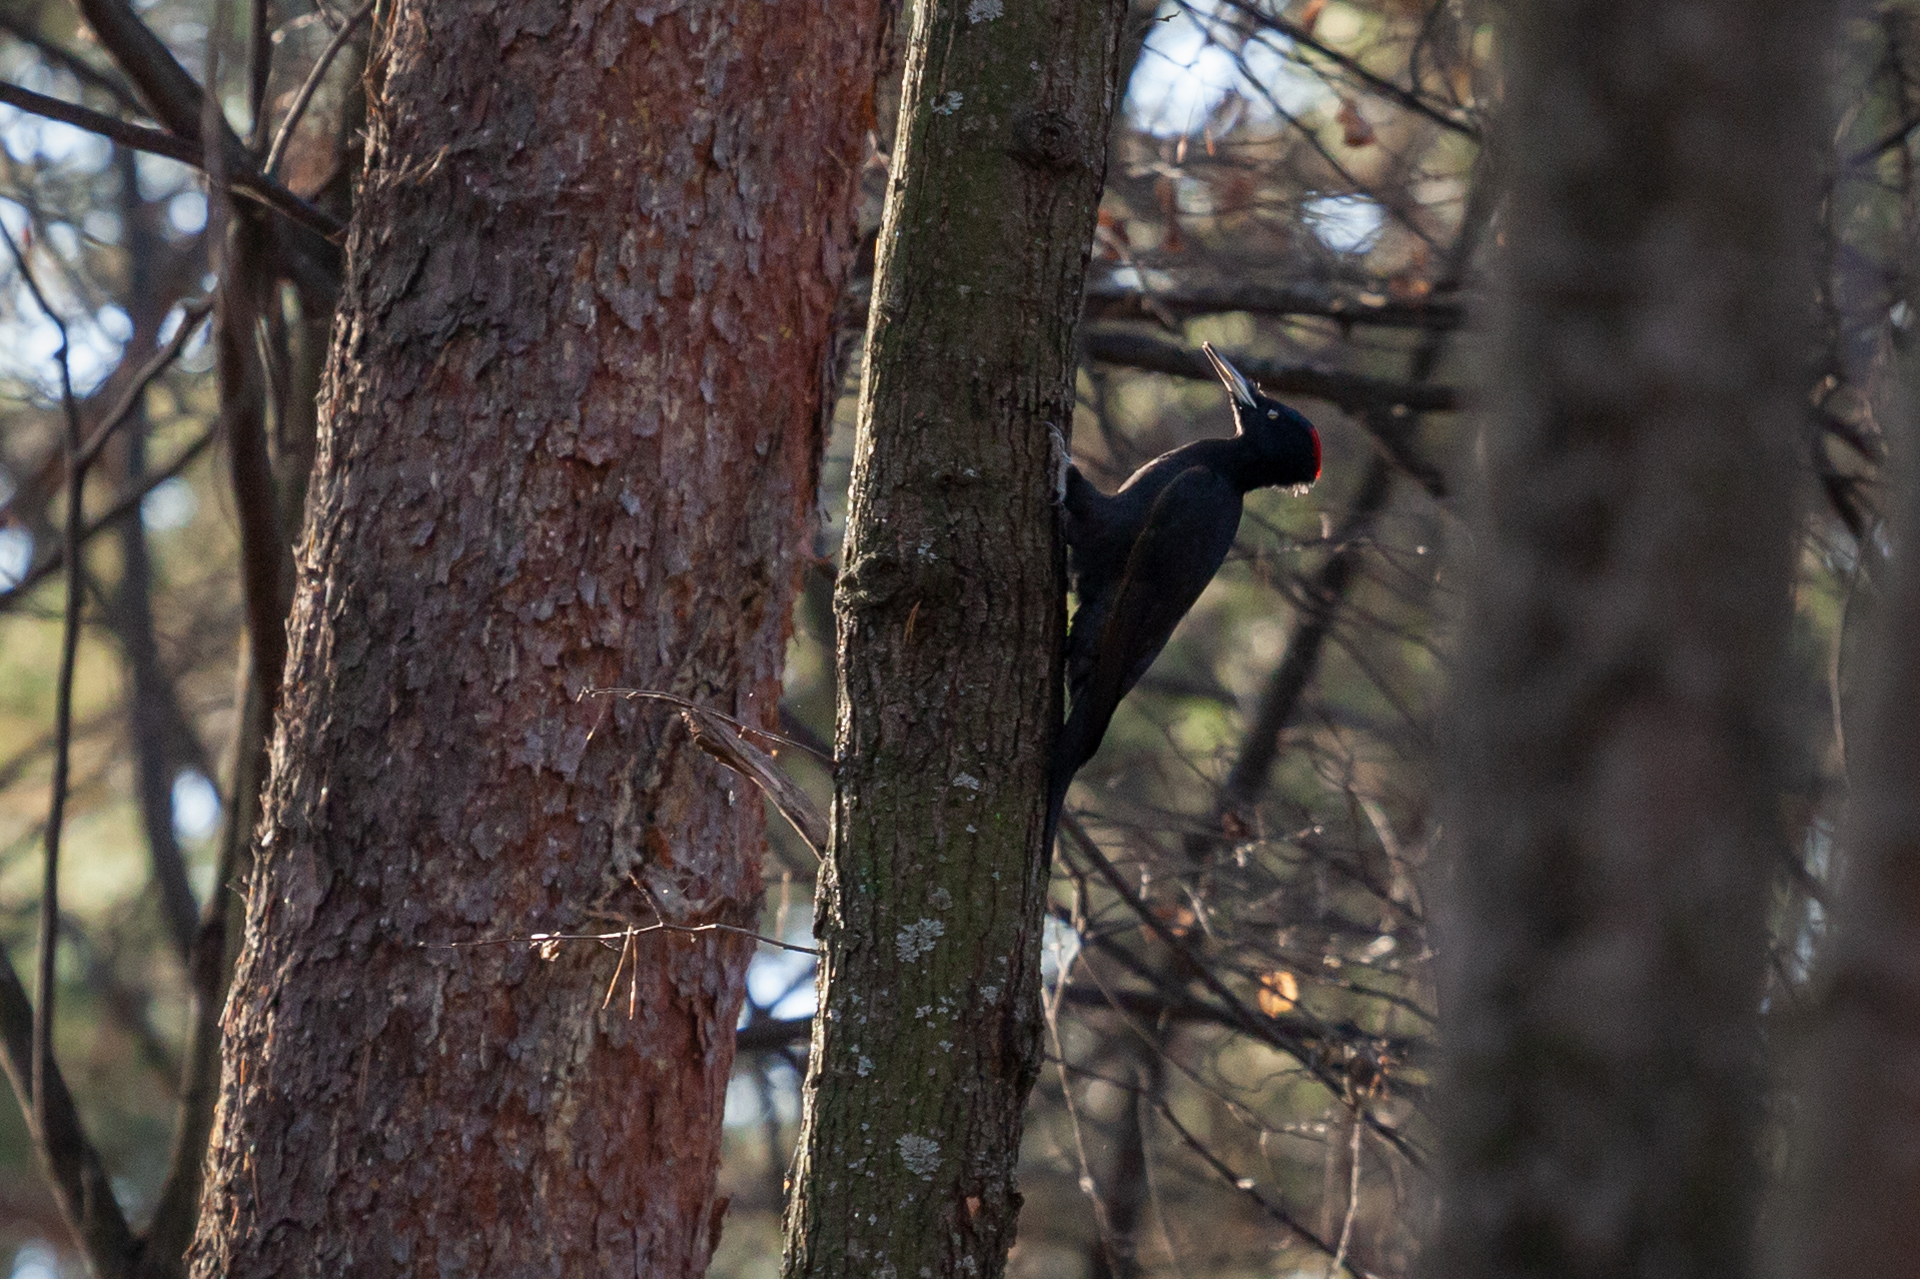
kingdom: Animalia
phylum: Chordata
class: Aves
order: Piciformes
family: Picidae
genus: Dryocopus
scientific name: Dryocopus martius
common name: Black woodpecker
